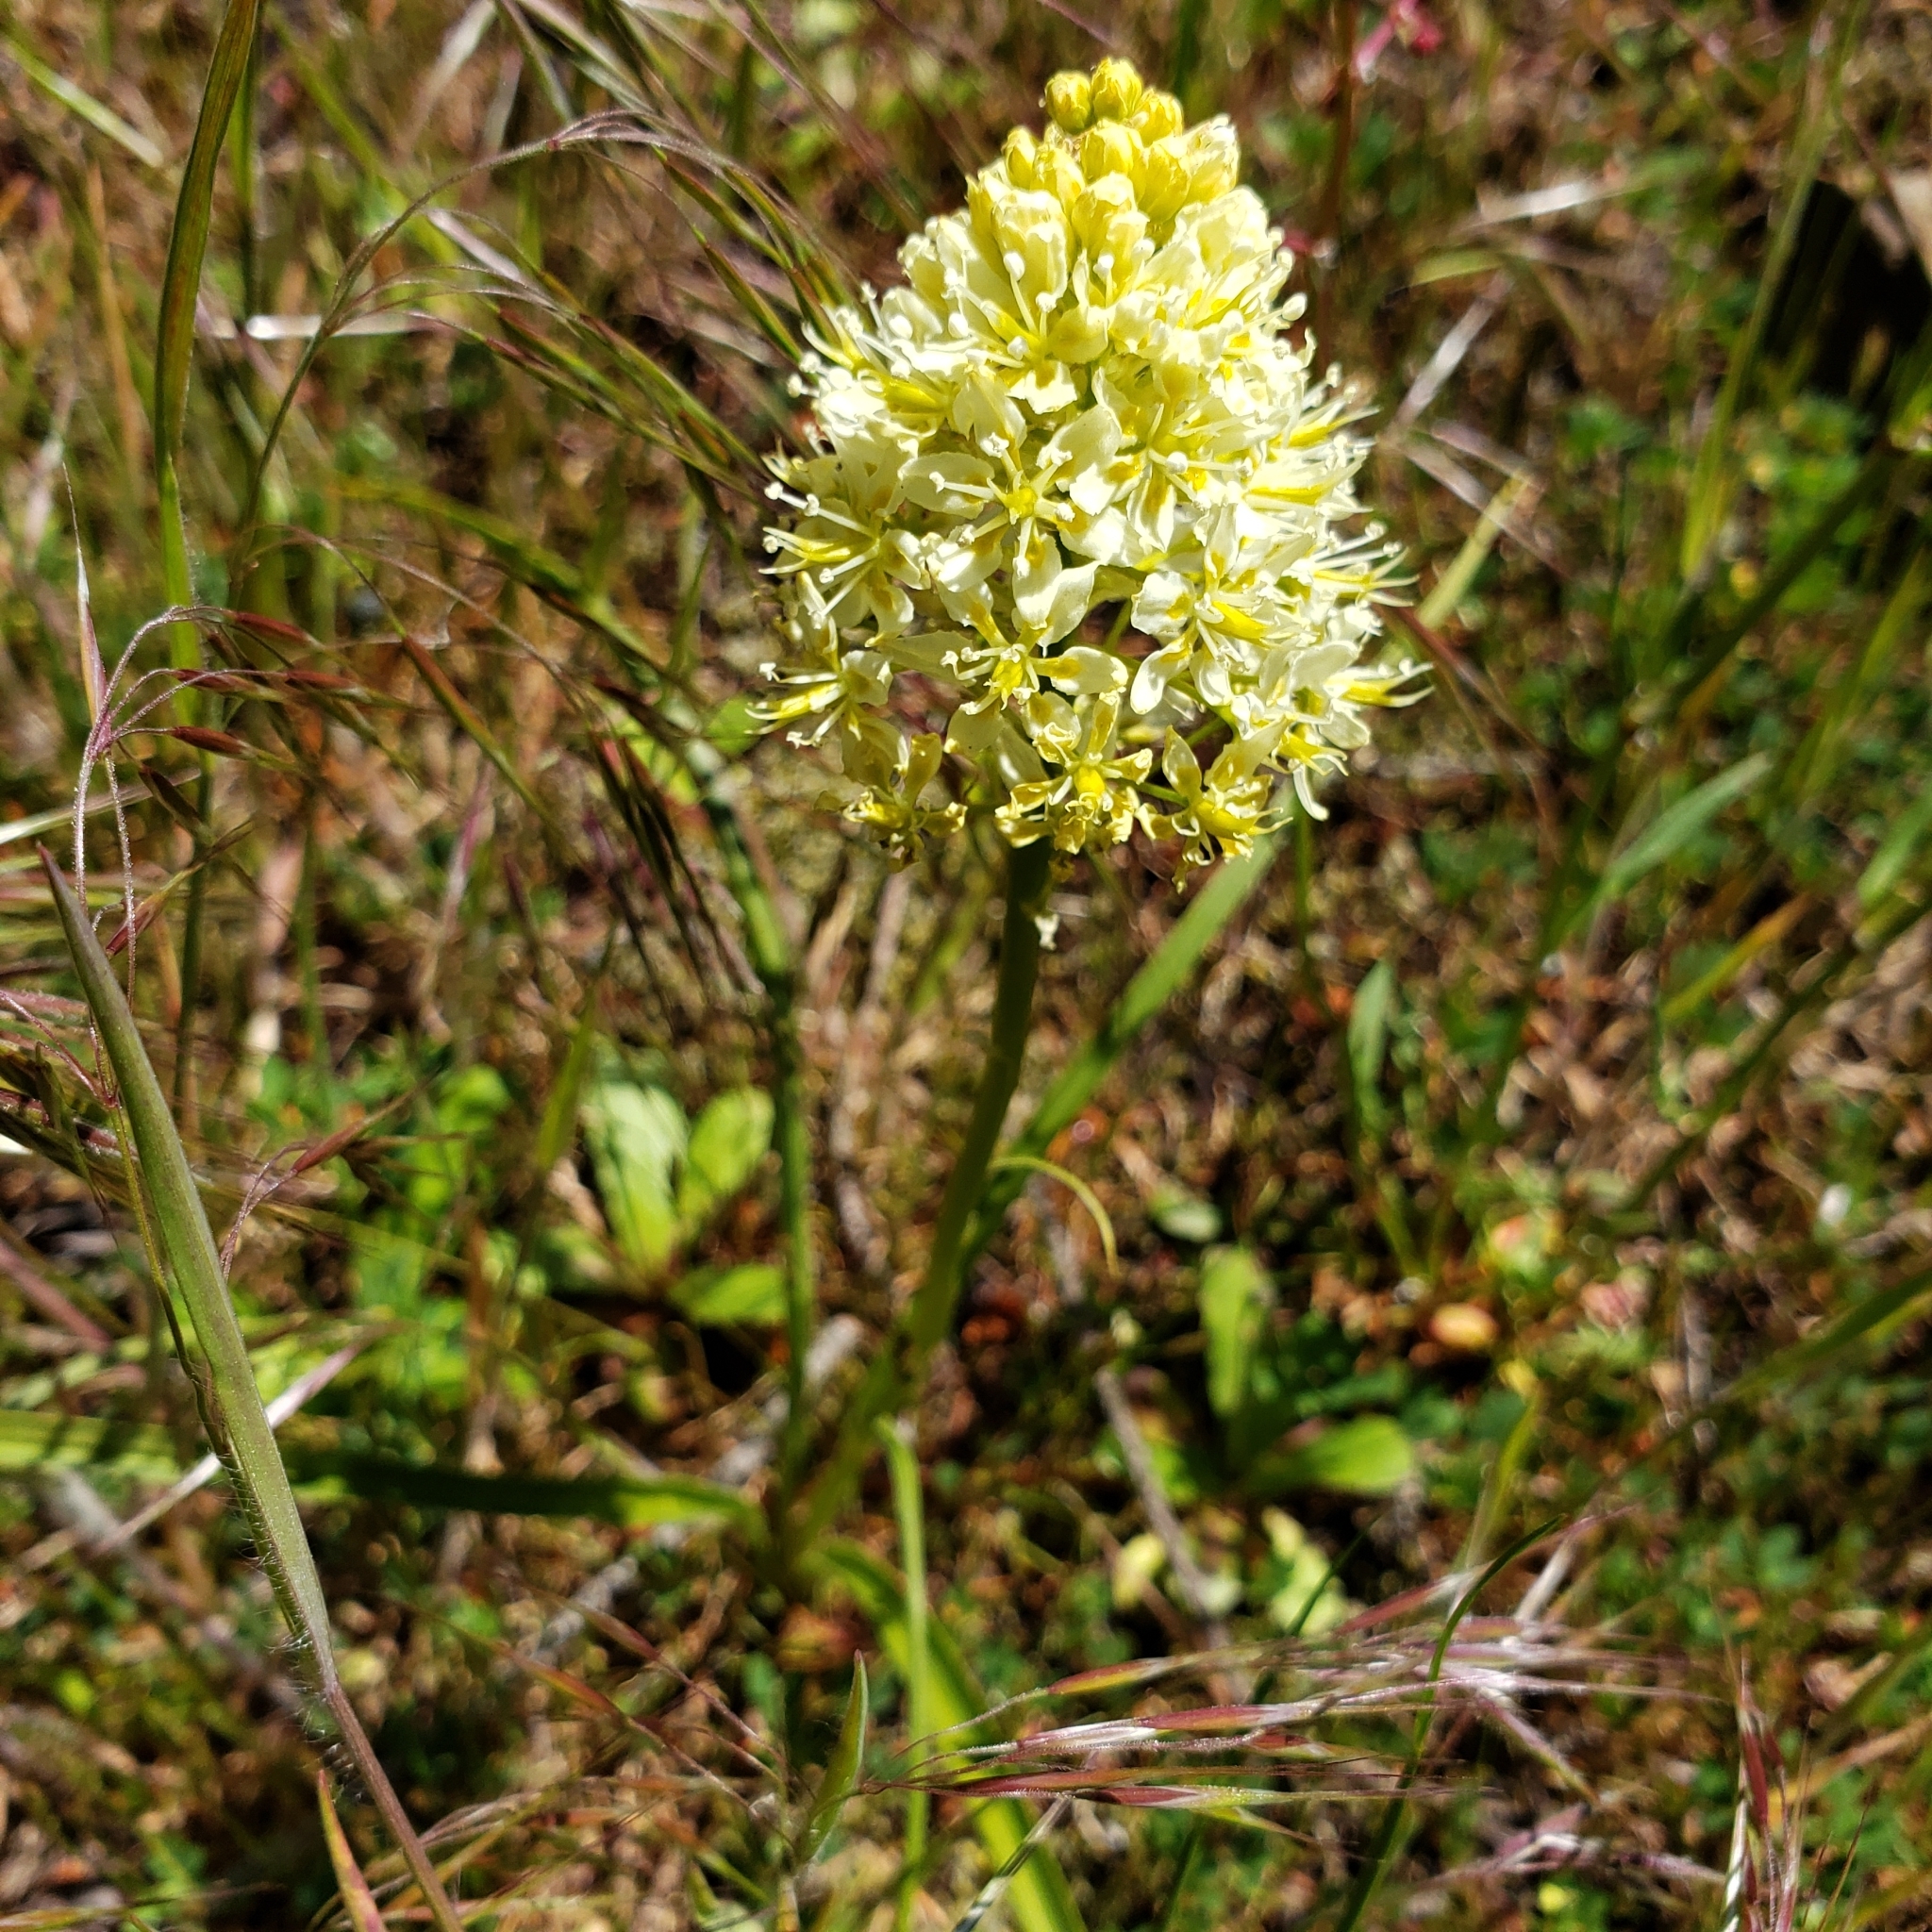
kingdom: Plantae
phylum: Tracheophyta
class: Liliopsida
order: Liliales
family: Melanthiaceae
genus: Toxicoscordion
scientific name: Toxicoscordion venenosum
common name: Meadow death camas
